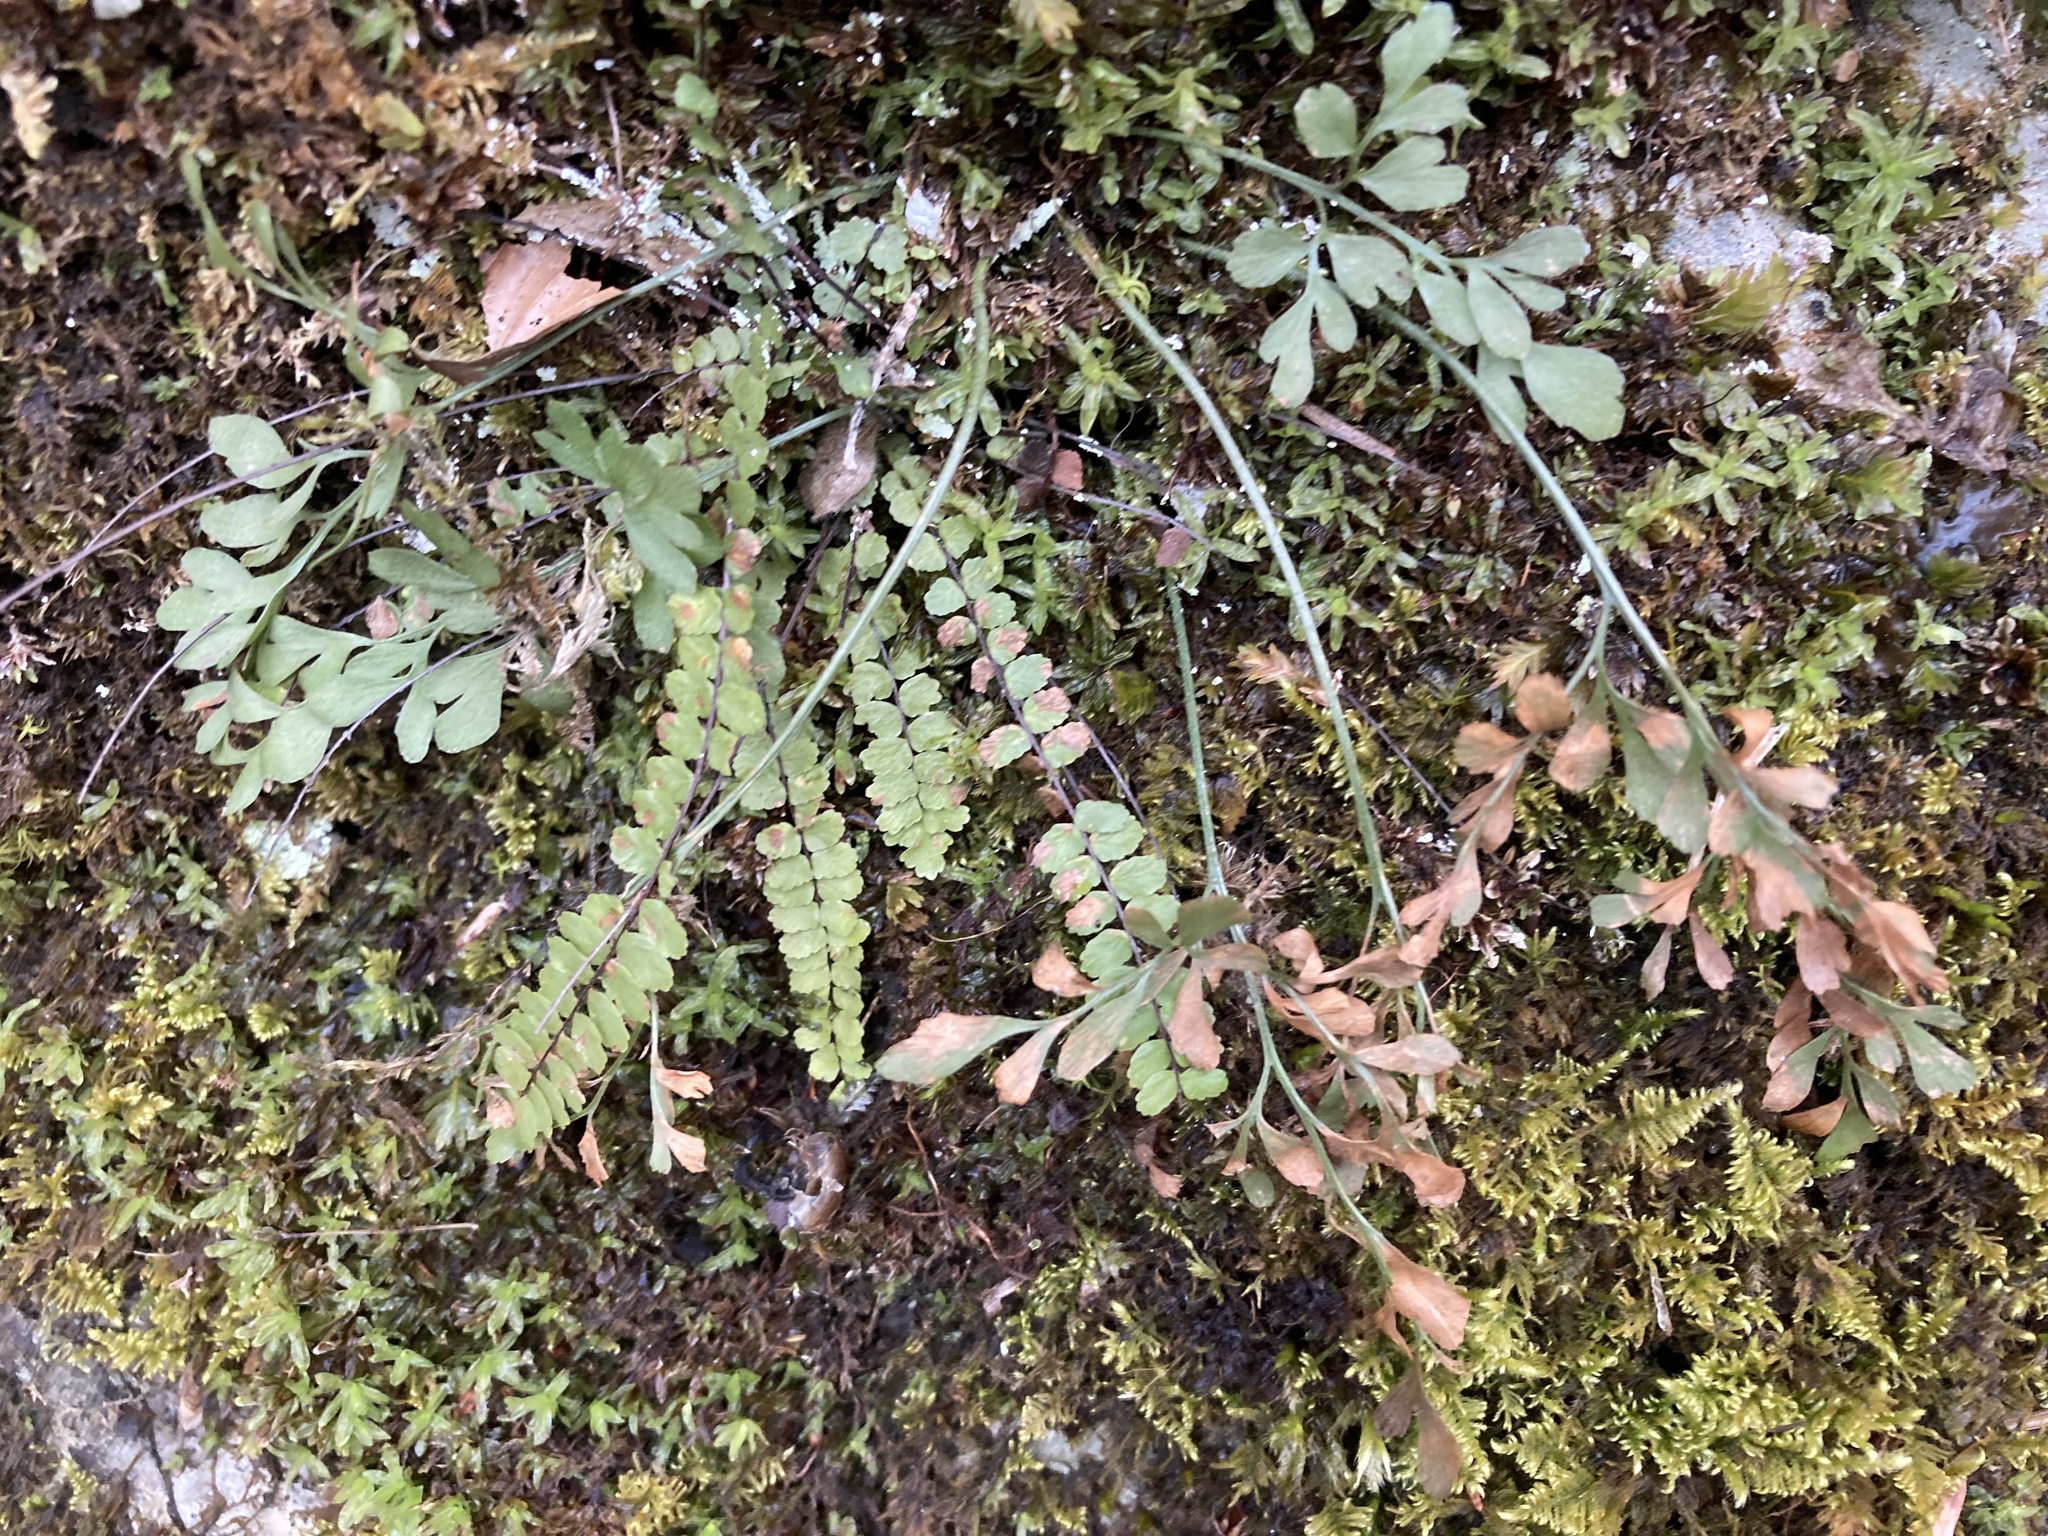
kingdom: Plantae
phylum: Tracheophyta
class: Polypodiopsida
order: Polypodiales
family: Aspleniaceae
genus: Asplenium
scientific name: Asplenium trichomanes
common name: Maidenhair spleenwort
